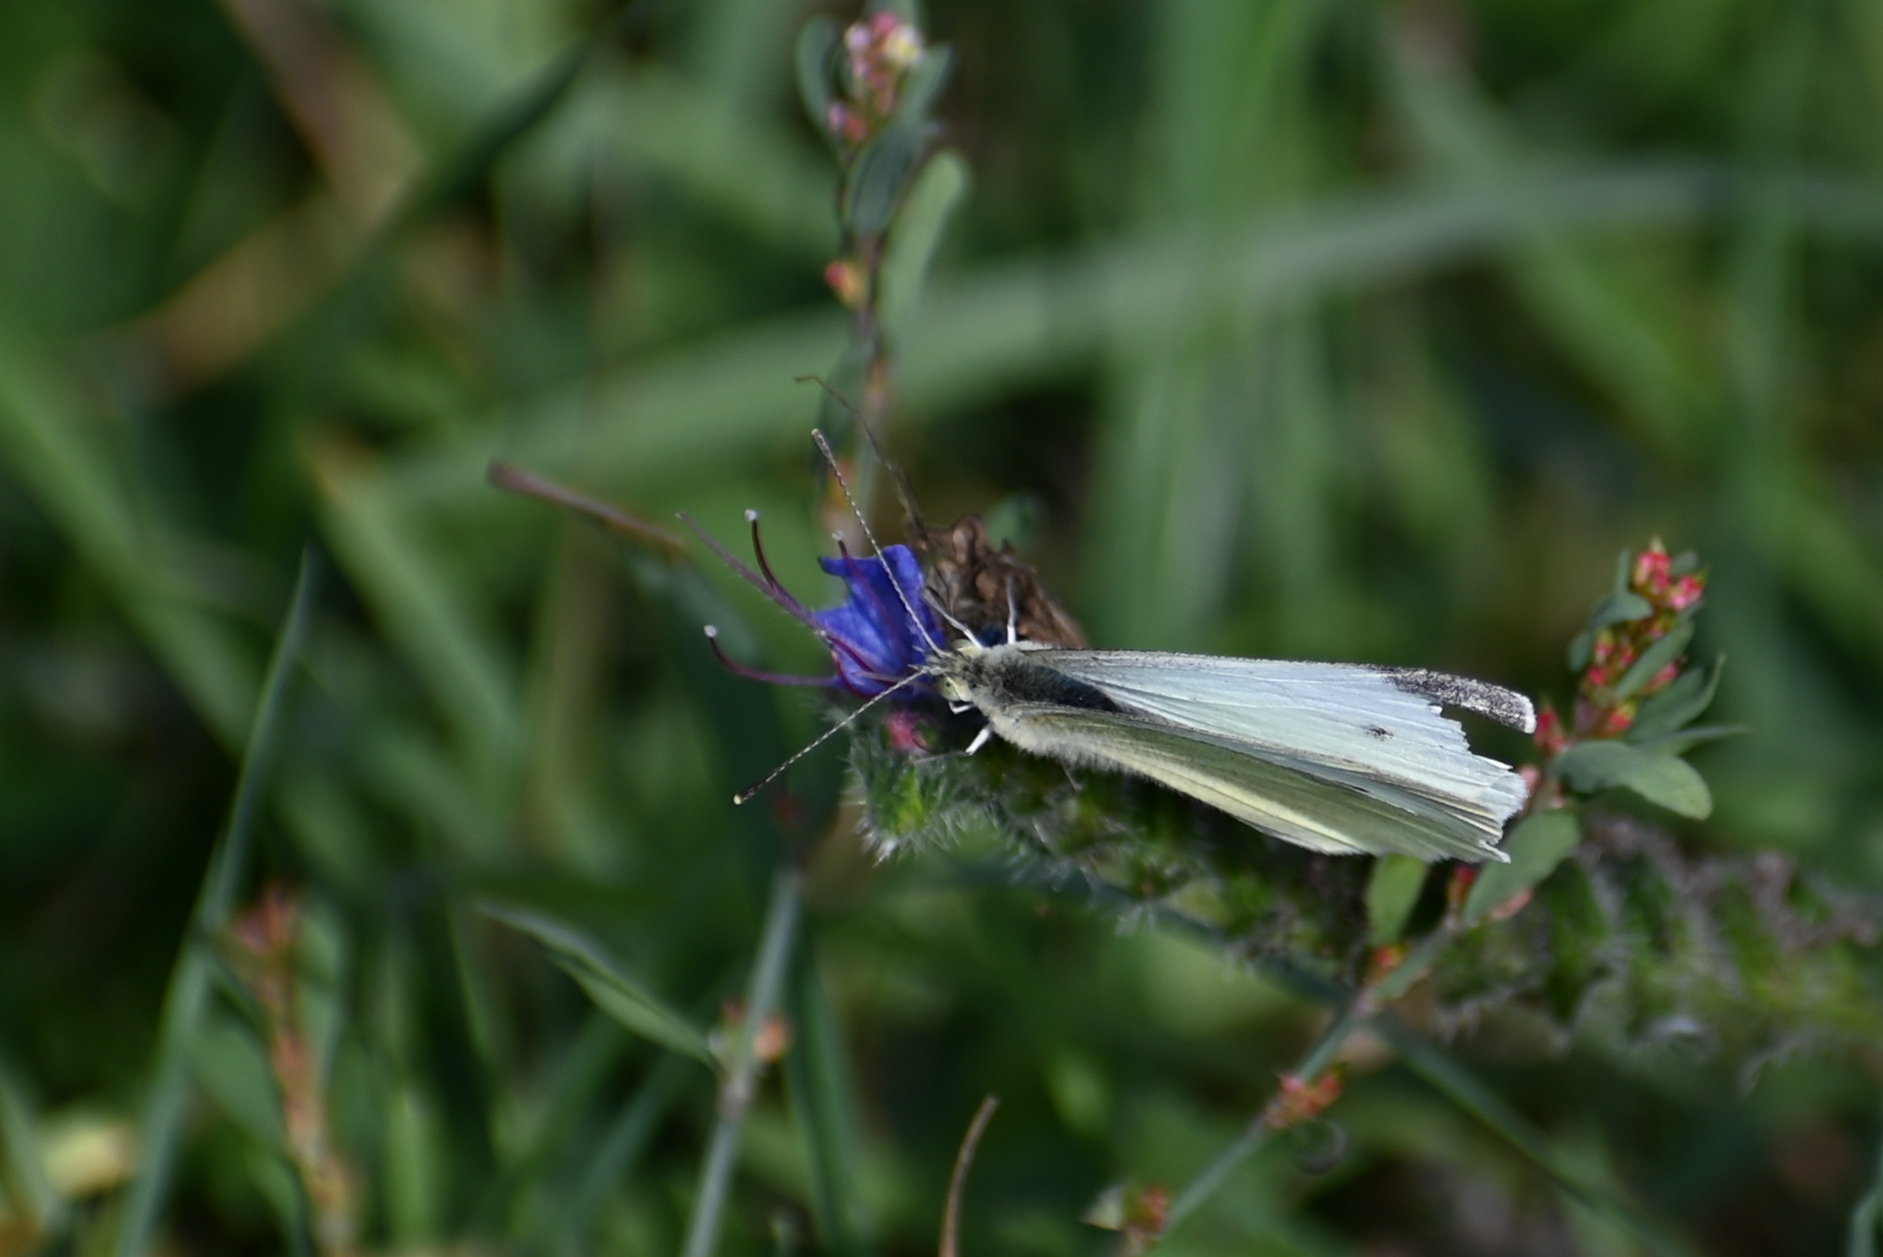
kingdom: Animalia
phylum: Arthropoda
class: Insecta
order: Lepidoptera
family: Pieridae
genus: Pieris
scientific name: Pieris rapae
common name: Small white
